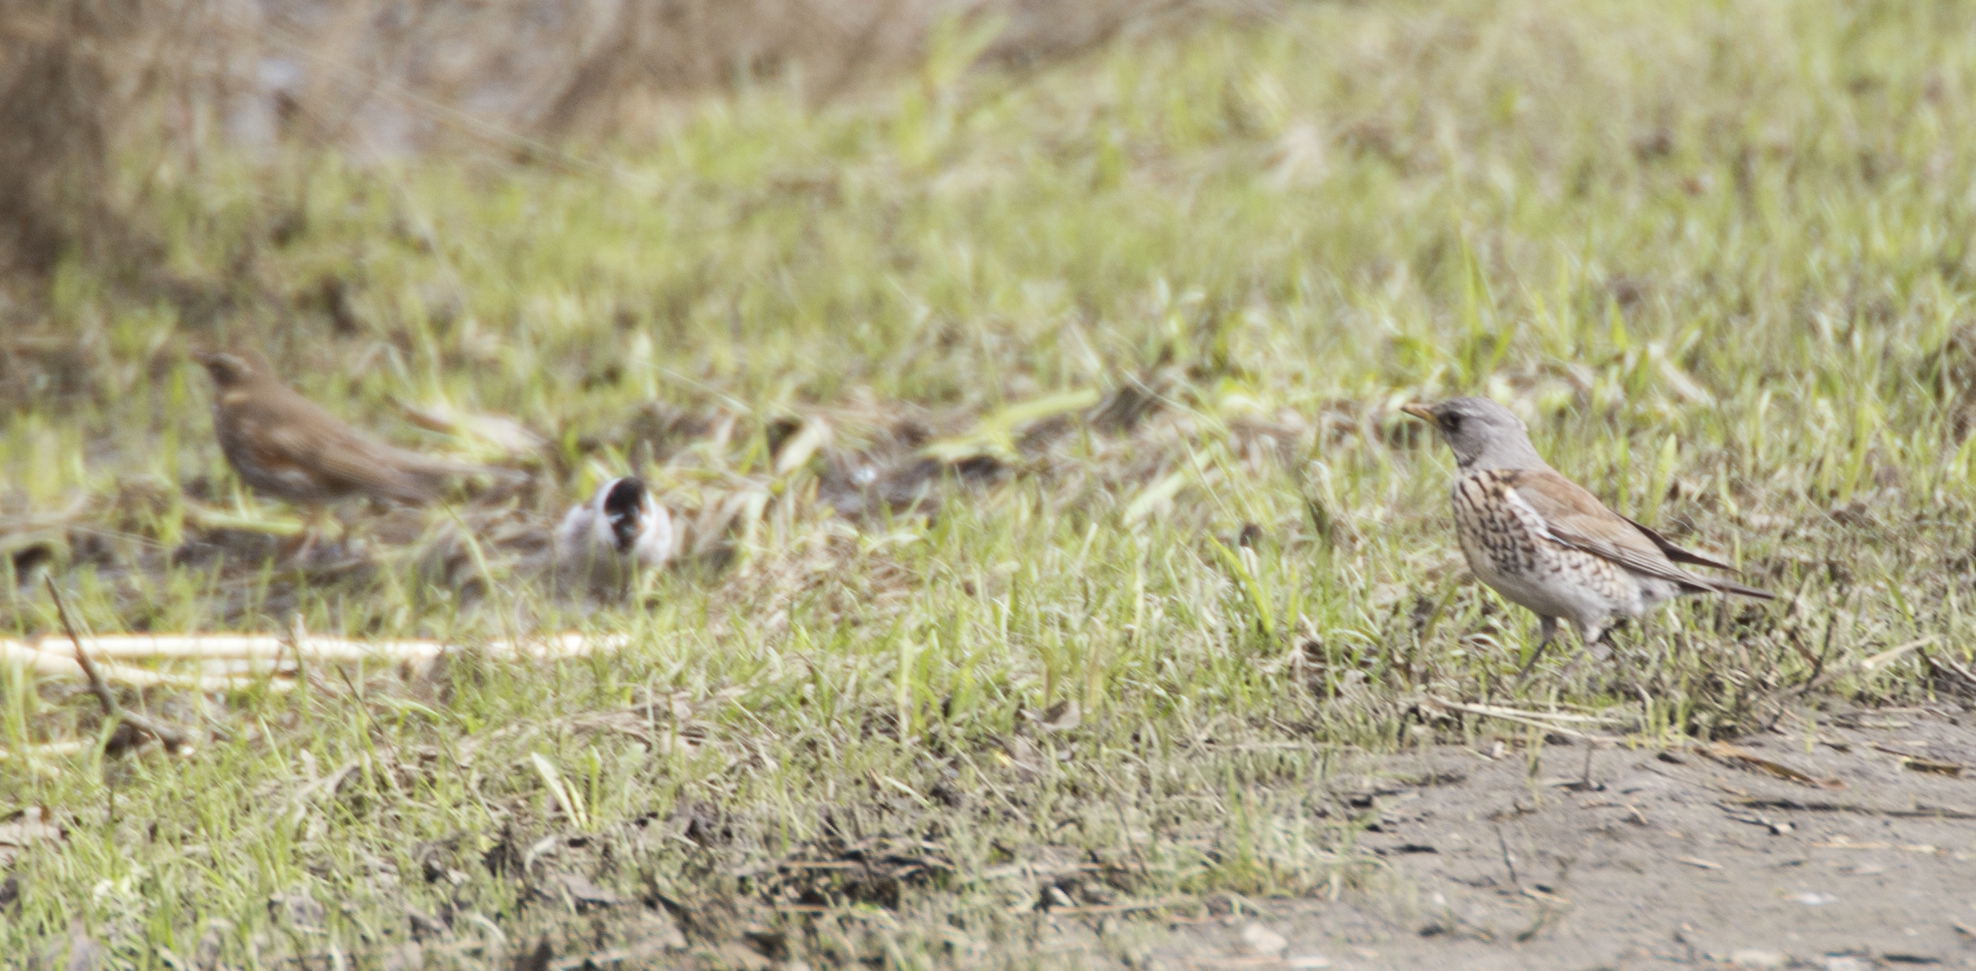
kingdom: Animalia
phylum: Chordata
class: Aves
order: Passeriformes
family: Turdidae
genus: Turdus
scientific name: Turdus pilaris
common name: Fieldfare
